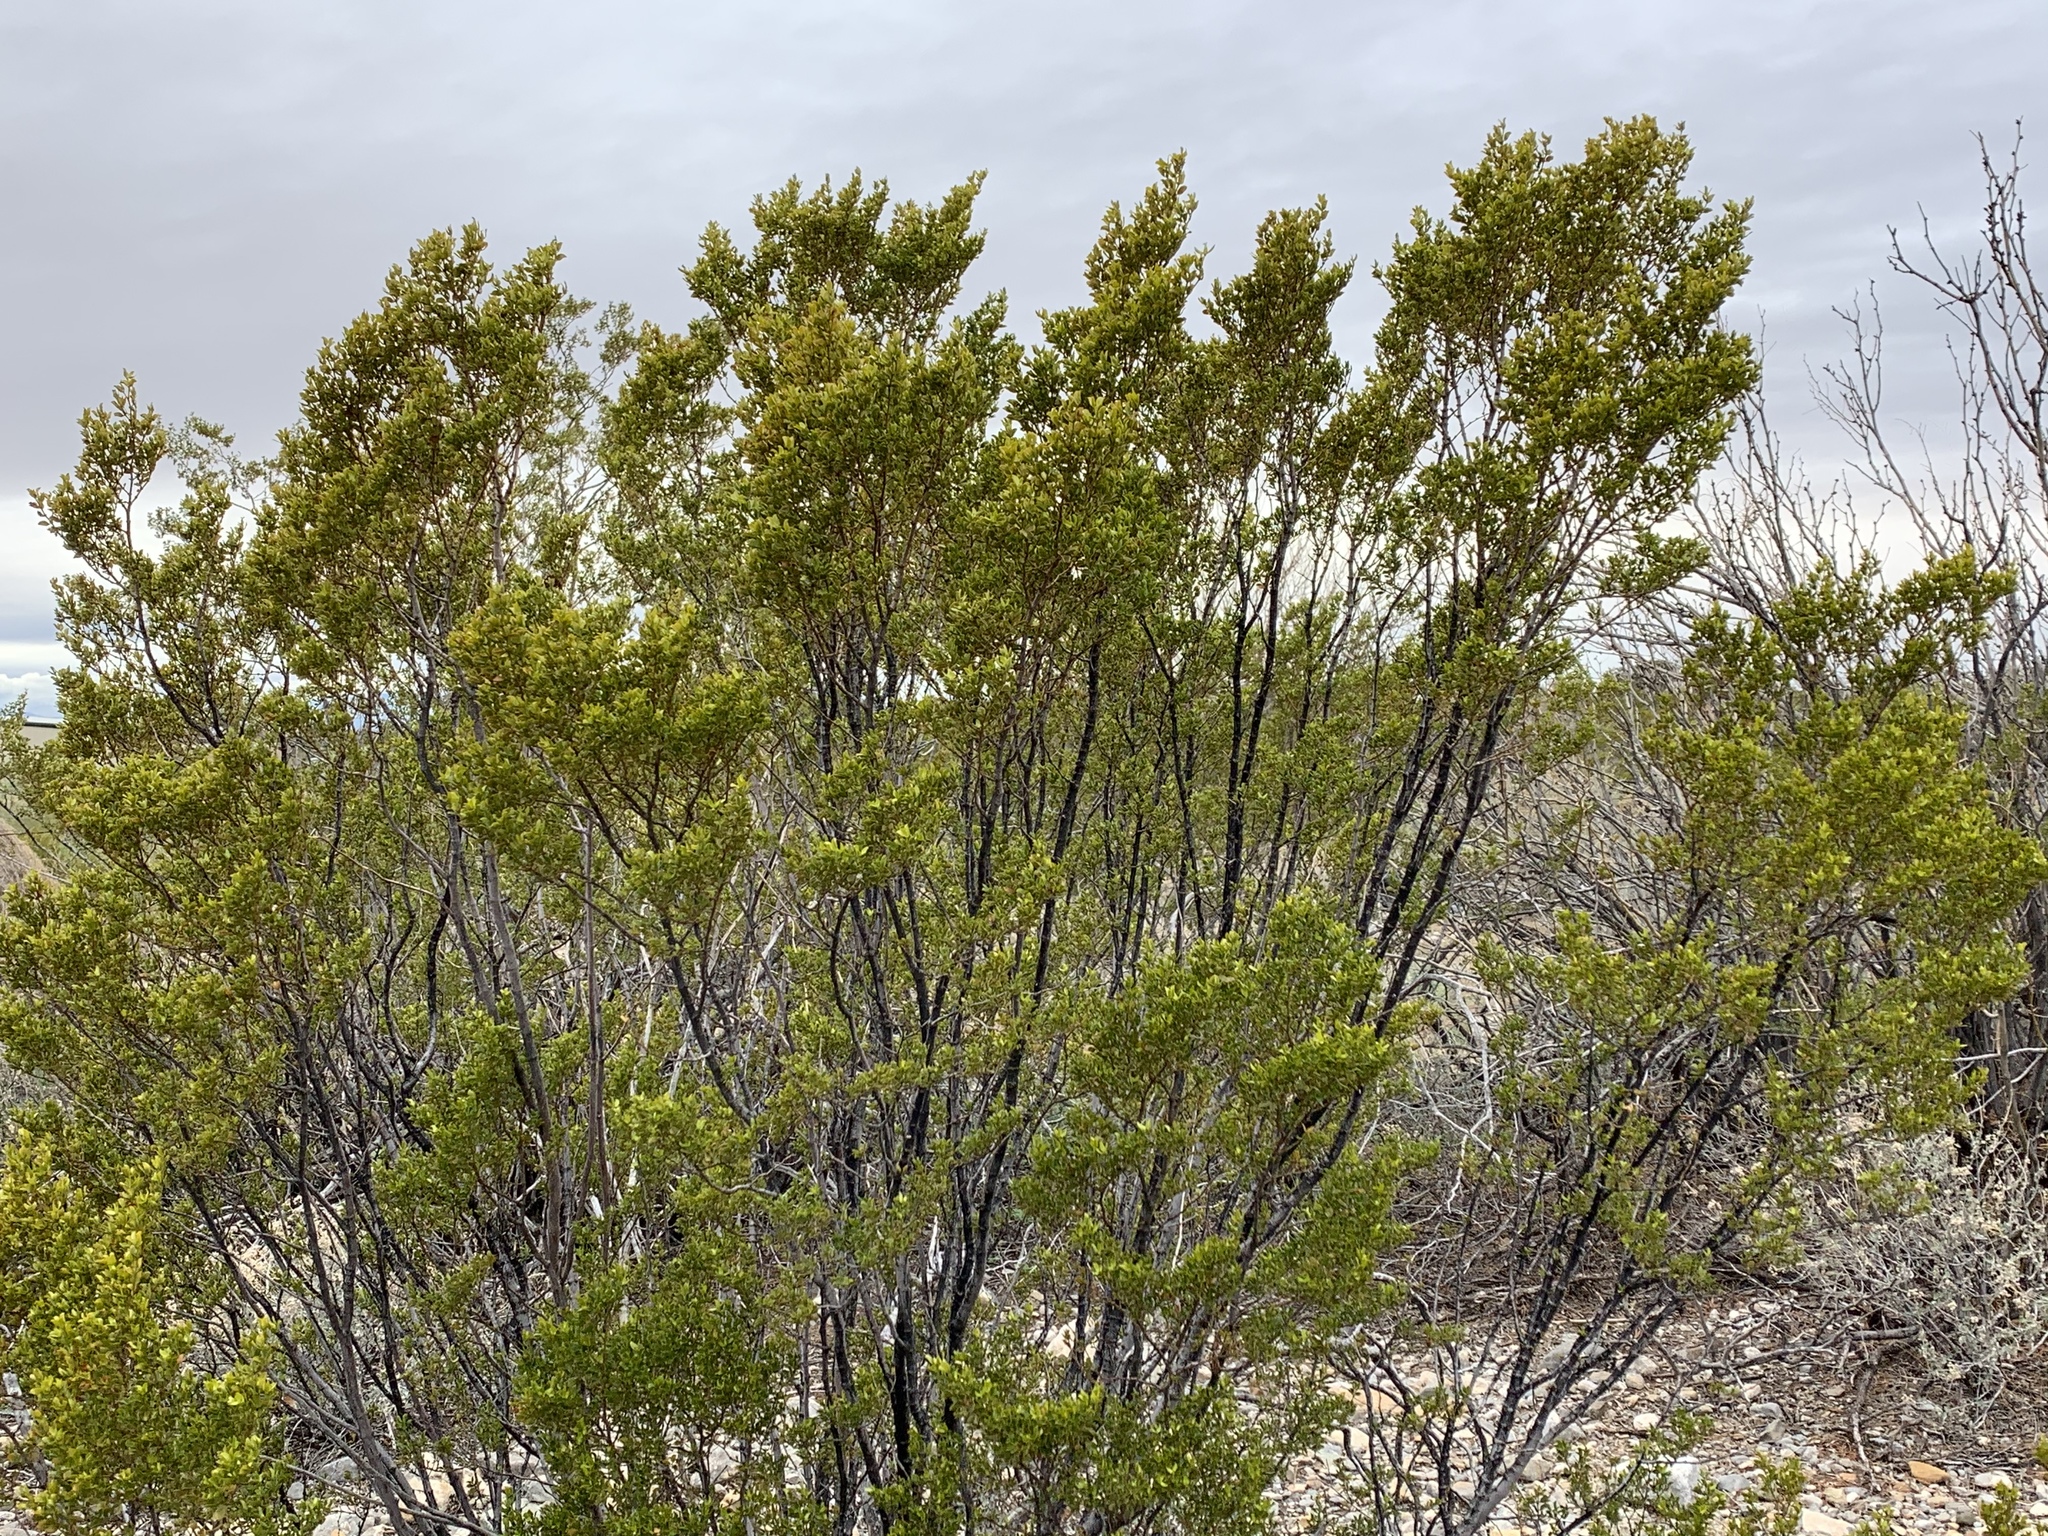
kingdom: Plantae
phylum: Tracheophyta
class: Magnoliopsida
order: Zygophyllales
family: Zygophyllaceae
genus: Larrea
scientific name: Larrea tridentata
